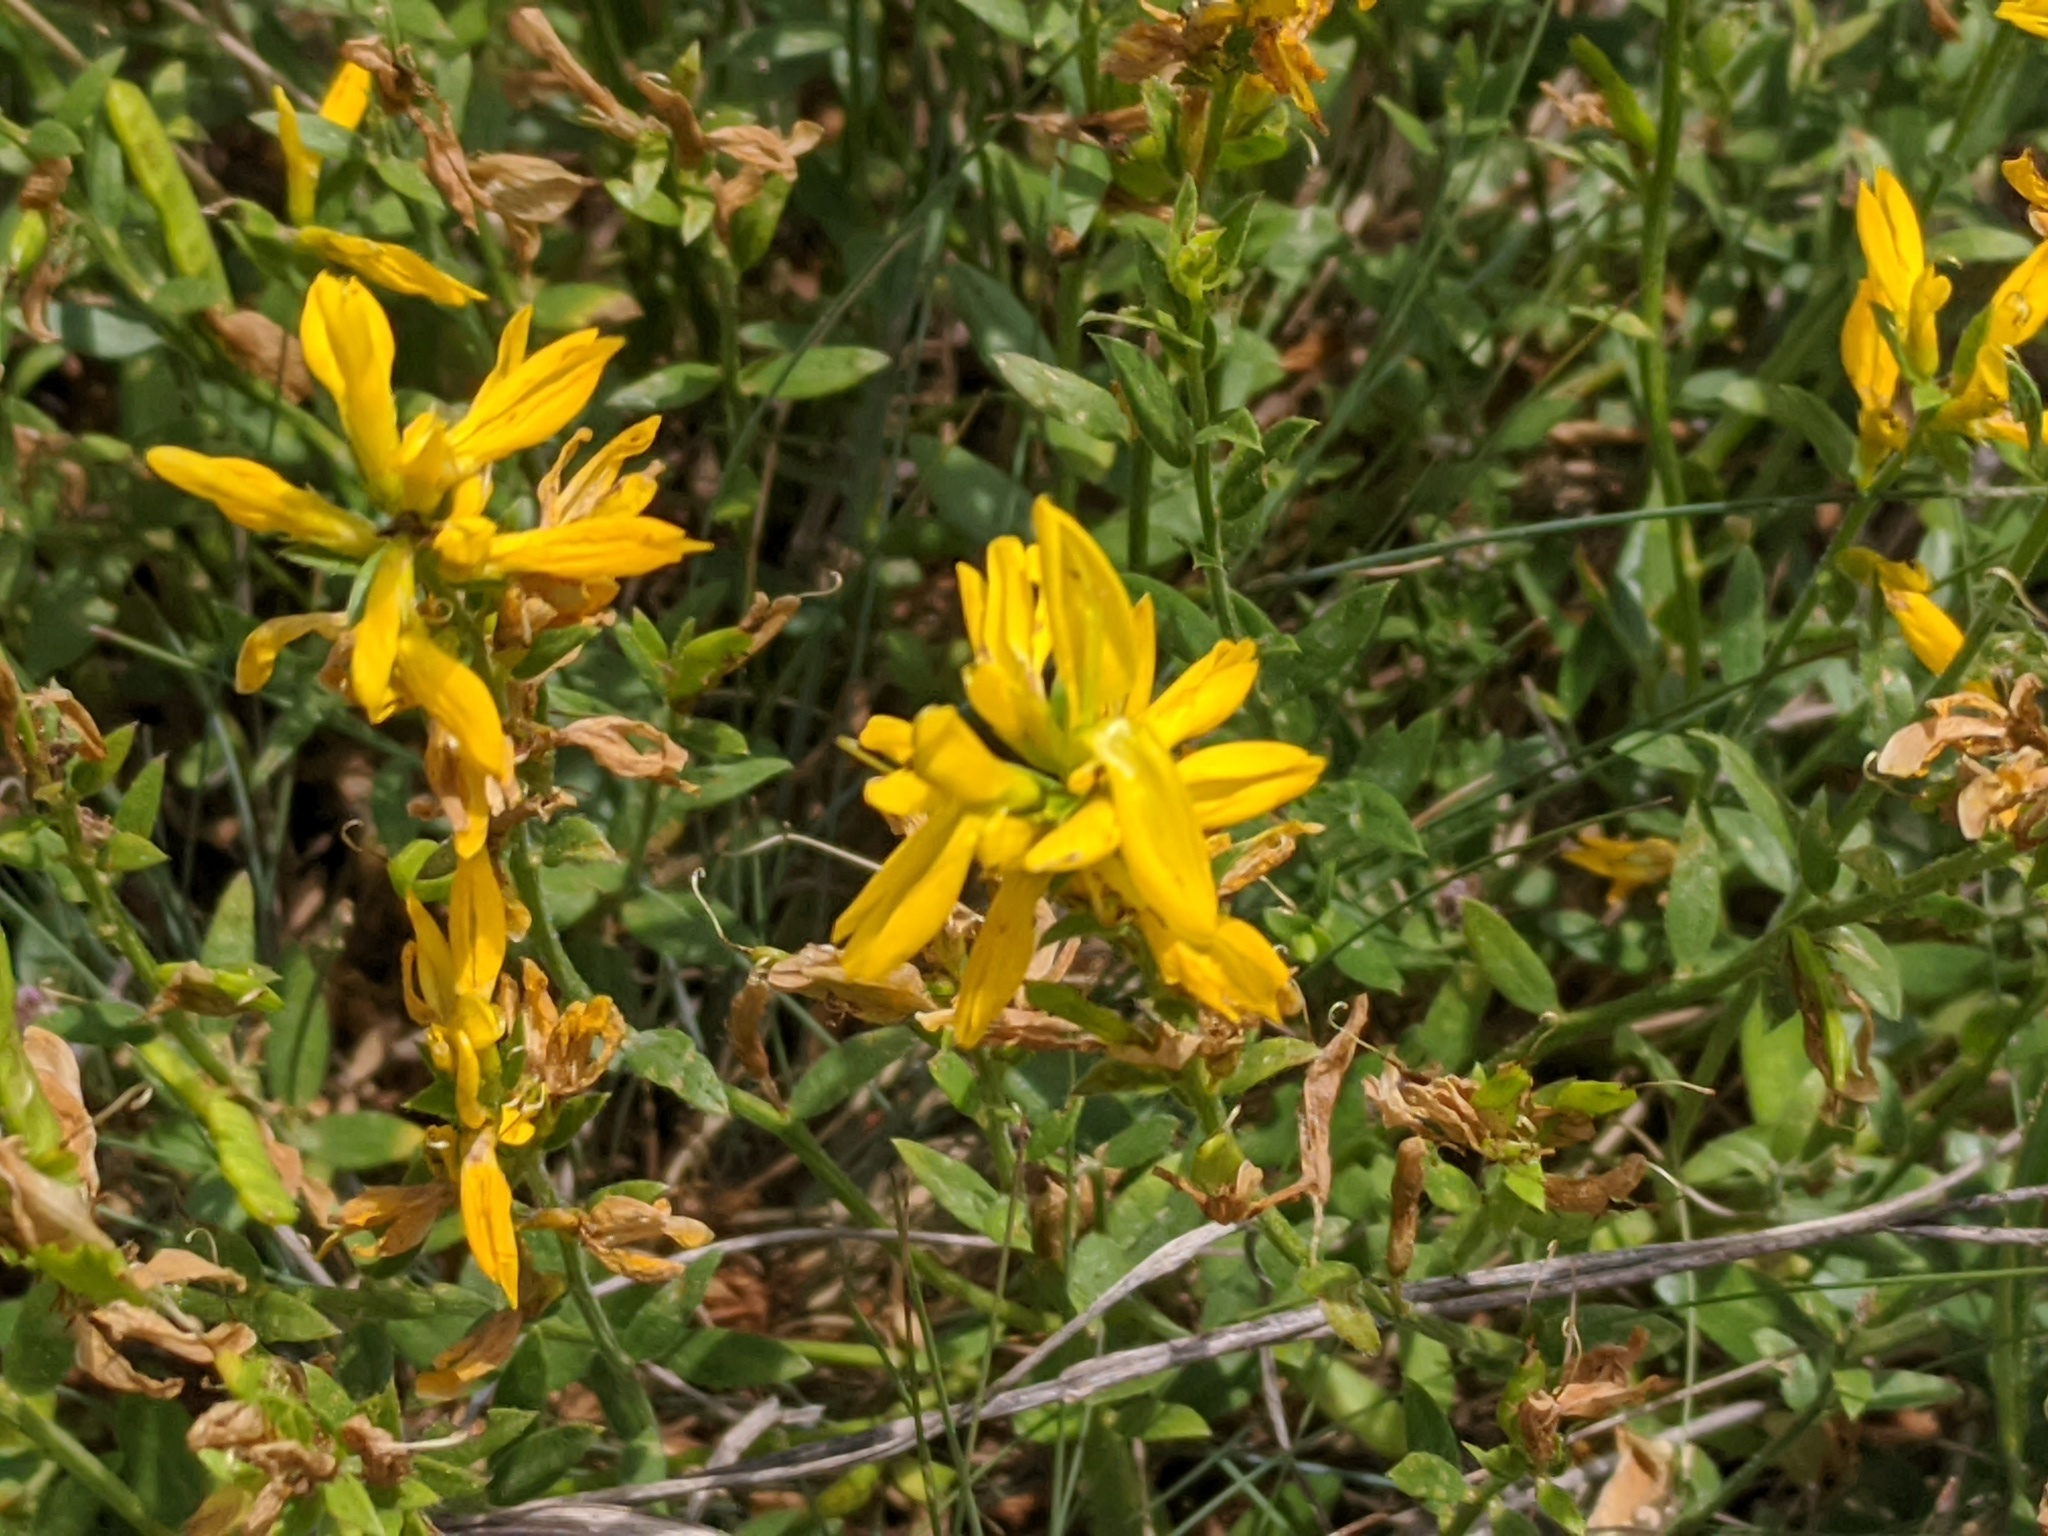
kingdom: Plantae
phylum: Tracheophyta
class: Magnoliopsida
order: Fabales
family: Fabaceae
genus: Genista
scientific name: Genista tinctoria
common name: Dyer's greenweed
